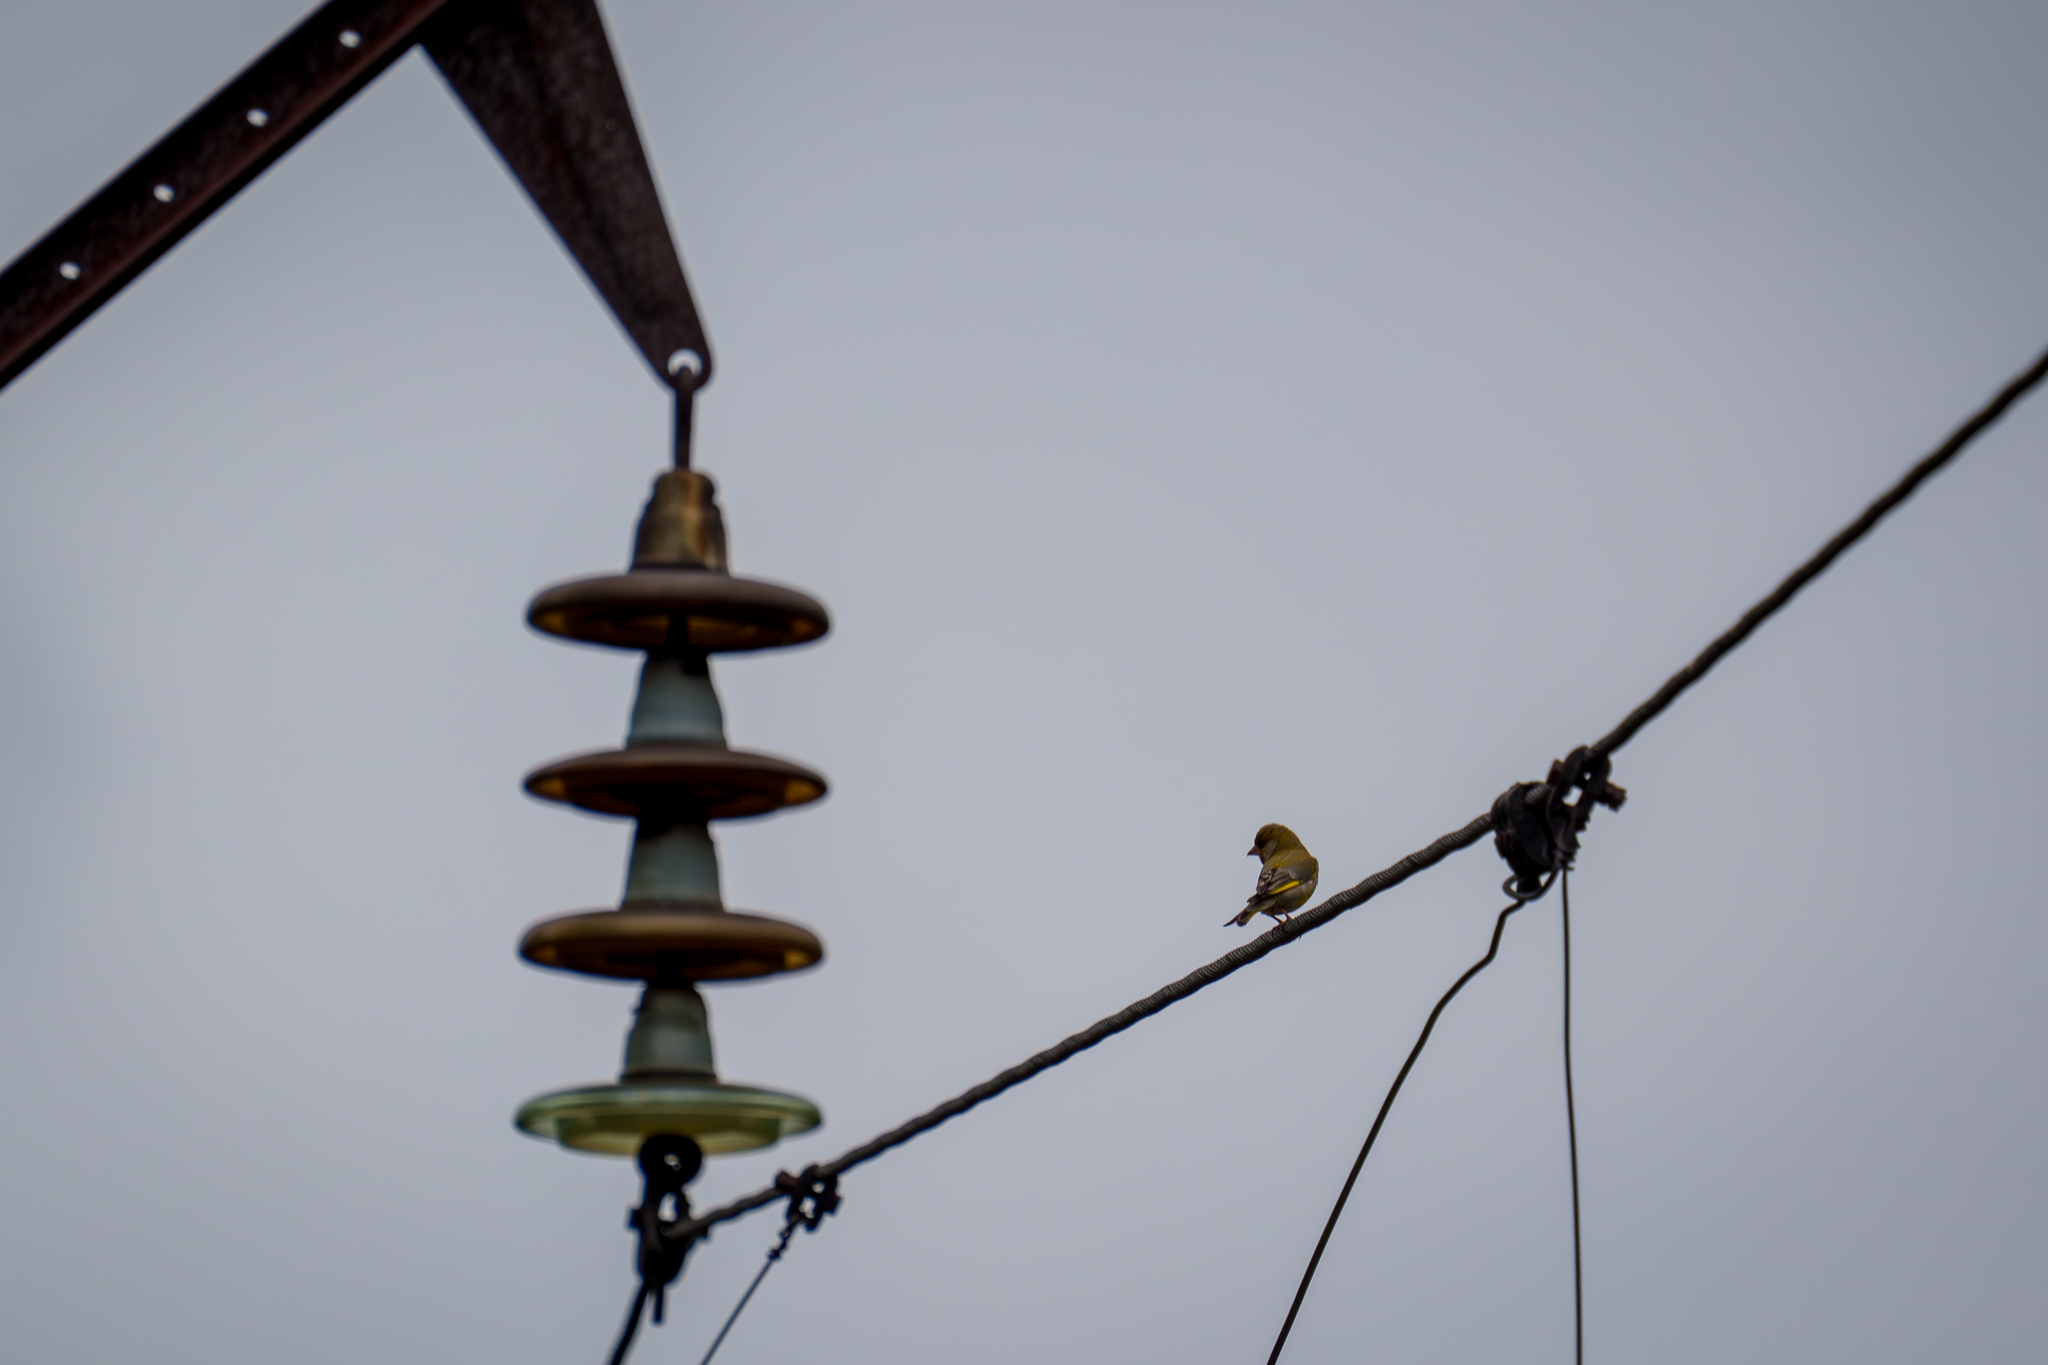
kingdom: Plantae
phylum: Tracheophyta
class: Liliopsida
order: Poales
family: Poaceae
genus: Chloris
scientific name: Chloris chloris
